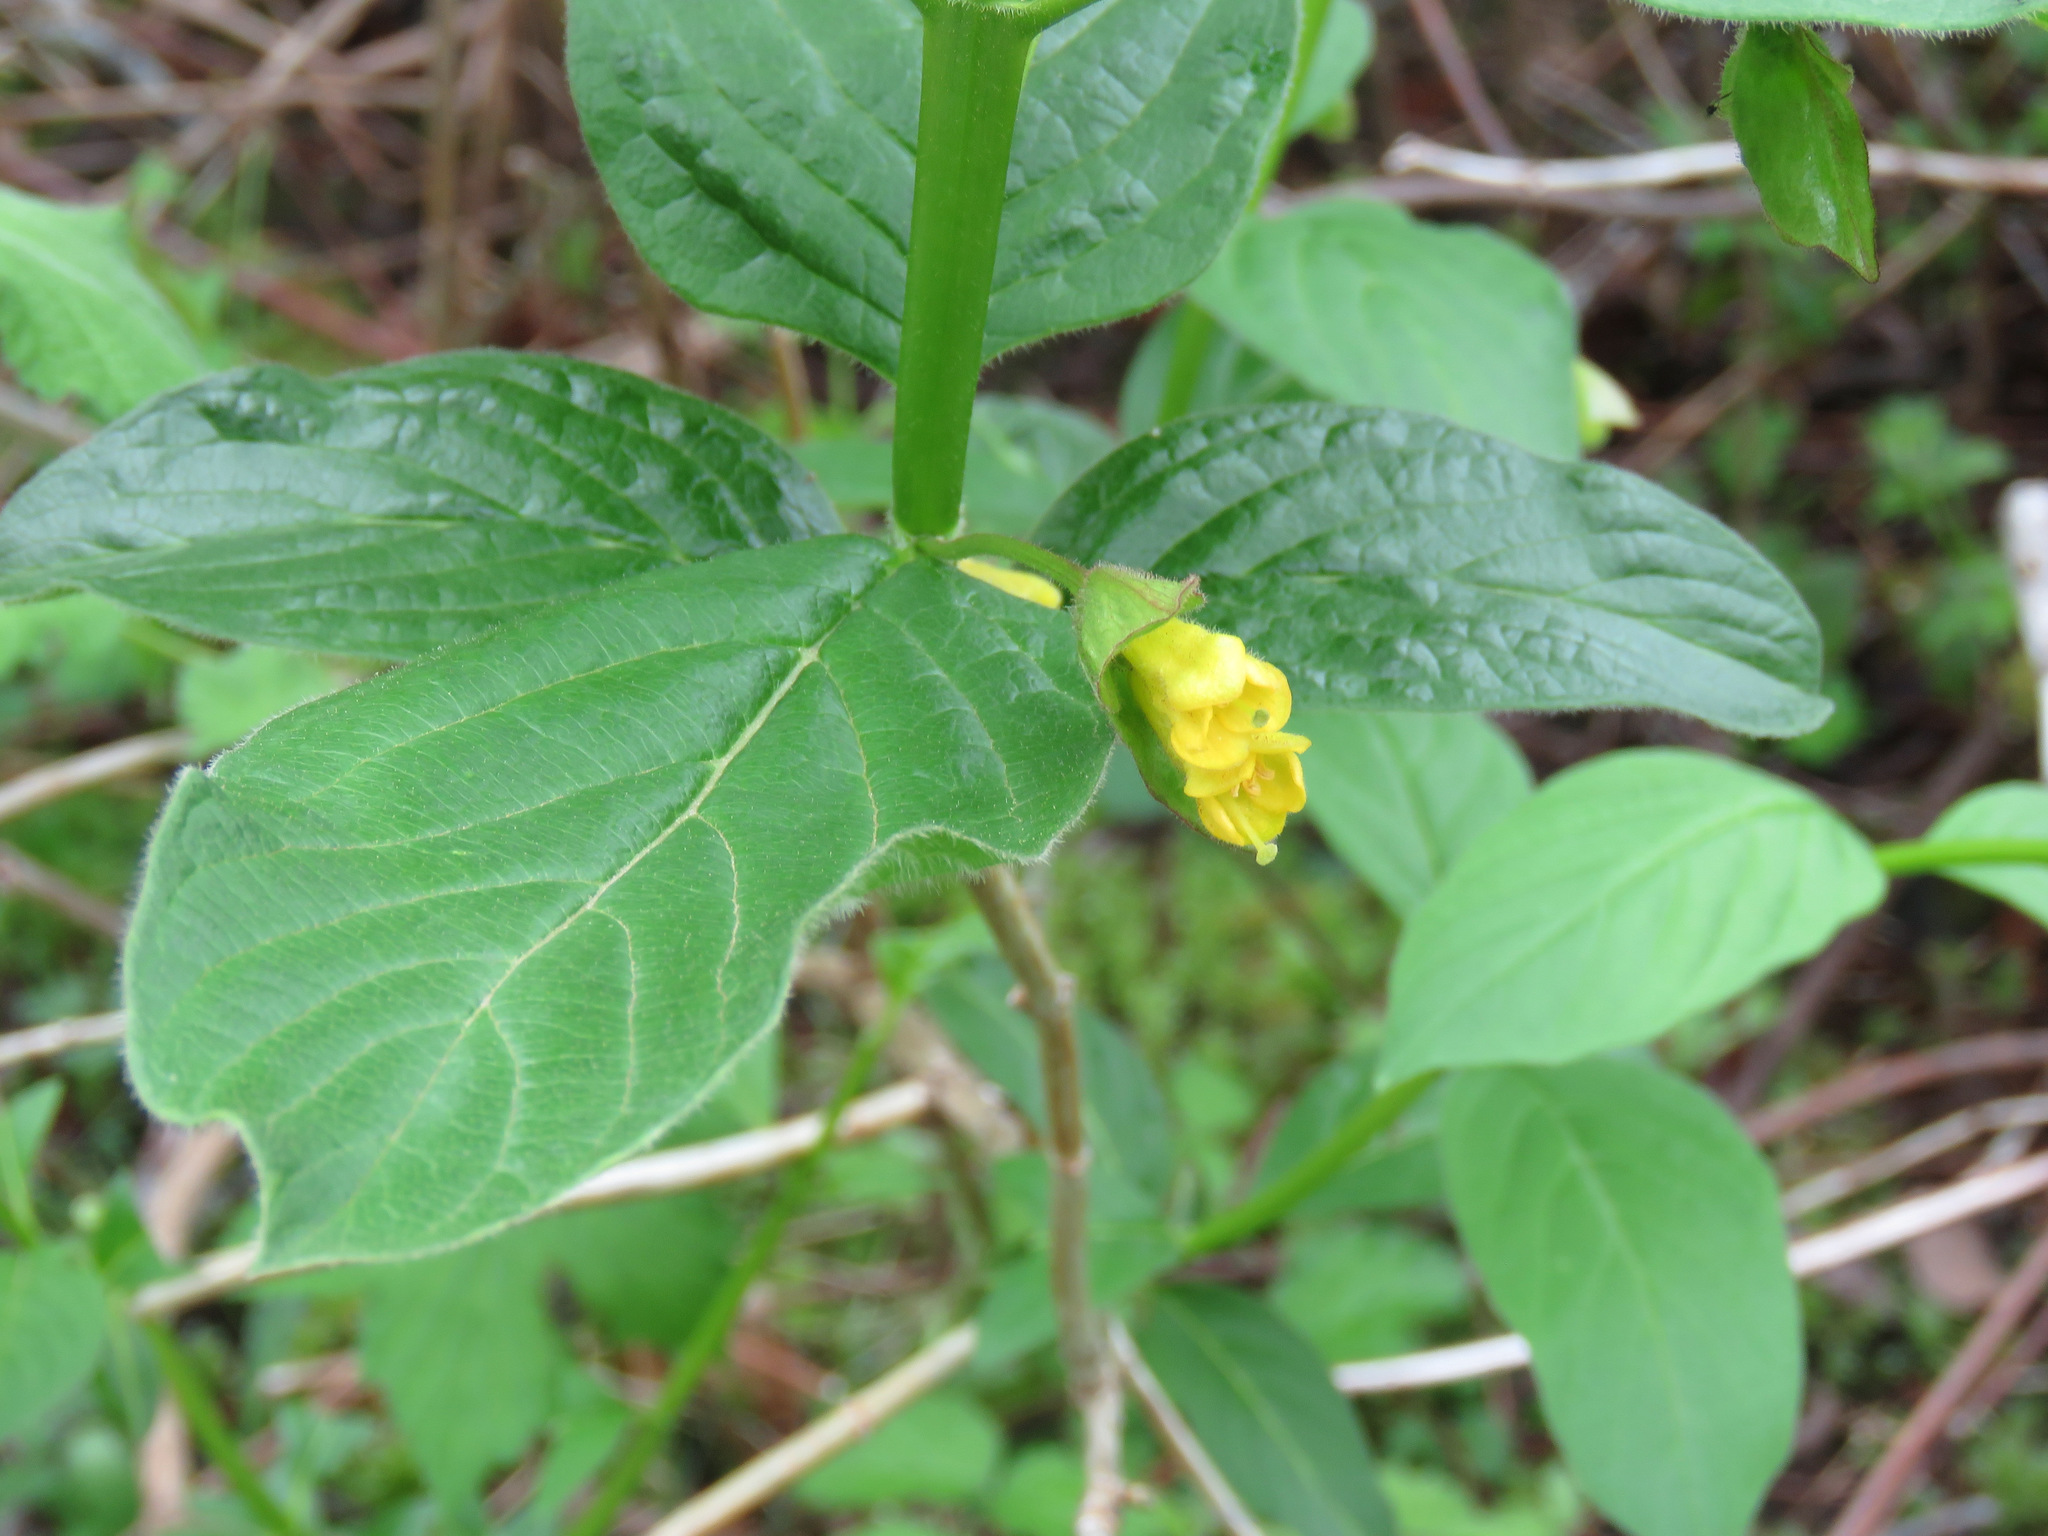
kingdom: Plantae
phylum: Tracheophyta
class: Magnoliopsida
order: Dipsacales
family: Caprifoliaceae
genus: Lonicera
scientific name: Lonicera involucrata
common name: Californian honeysuckle
